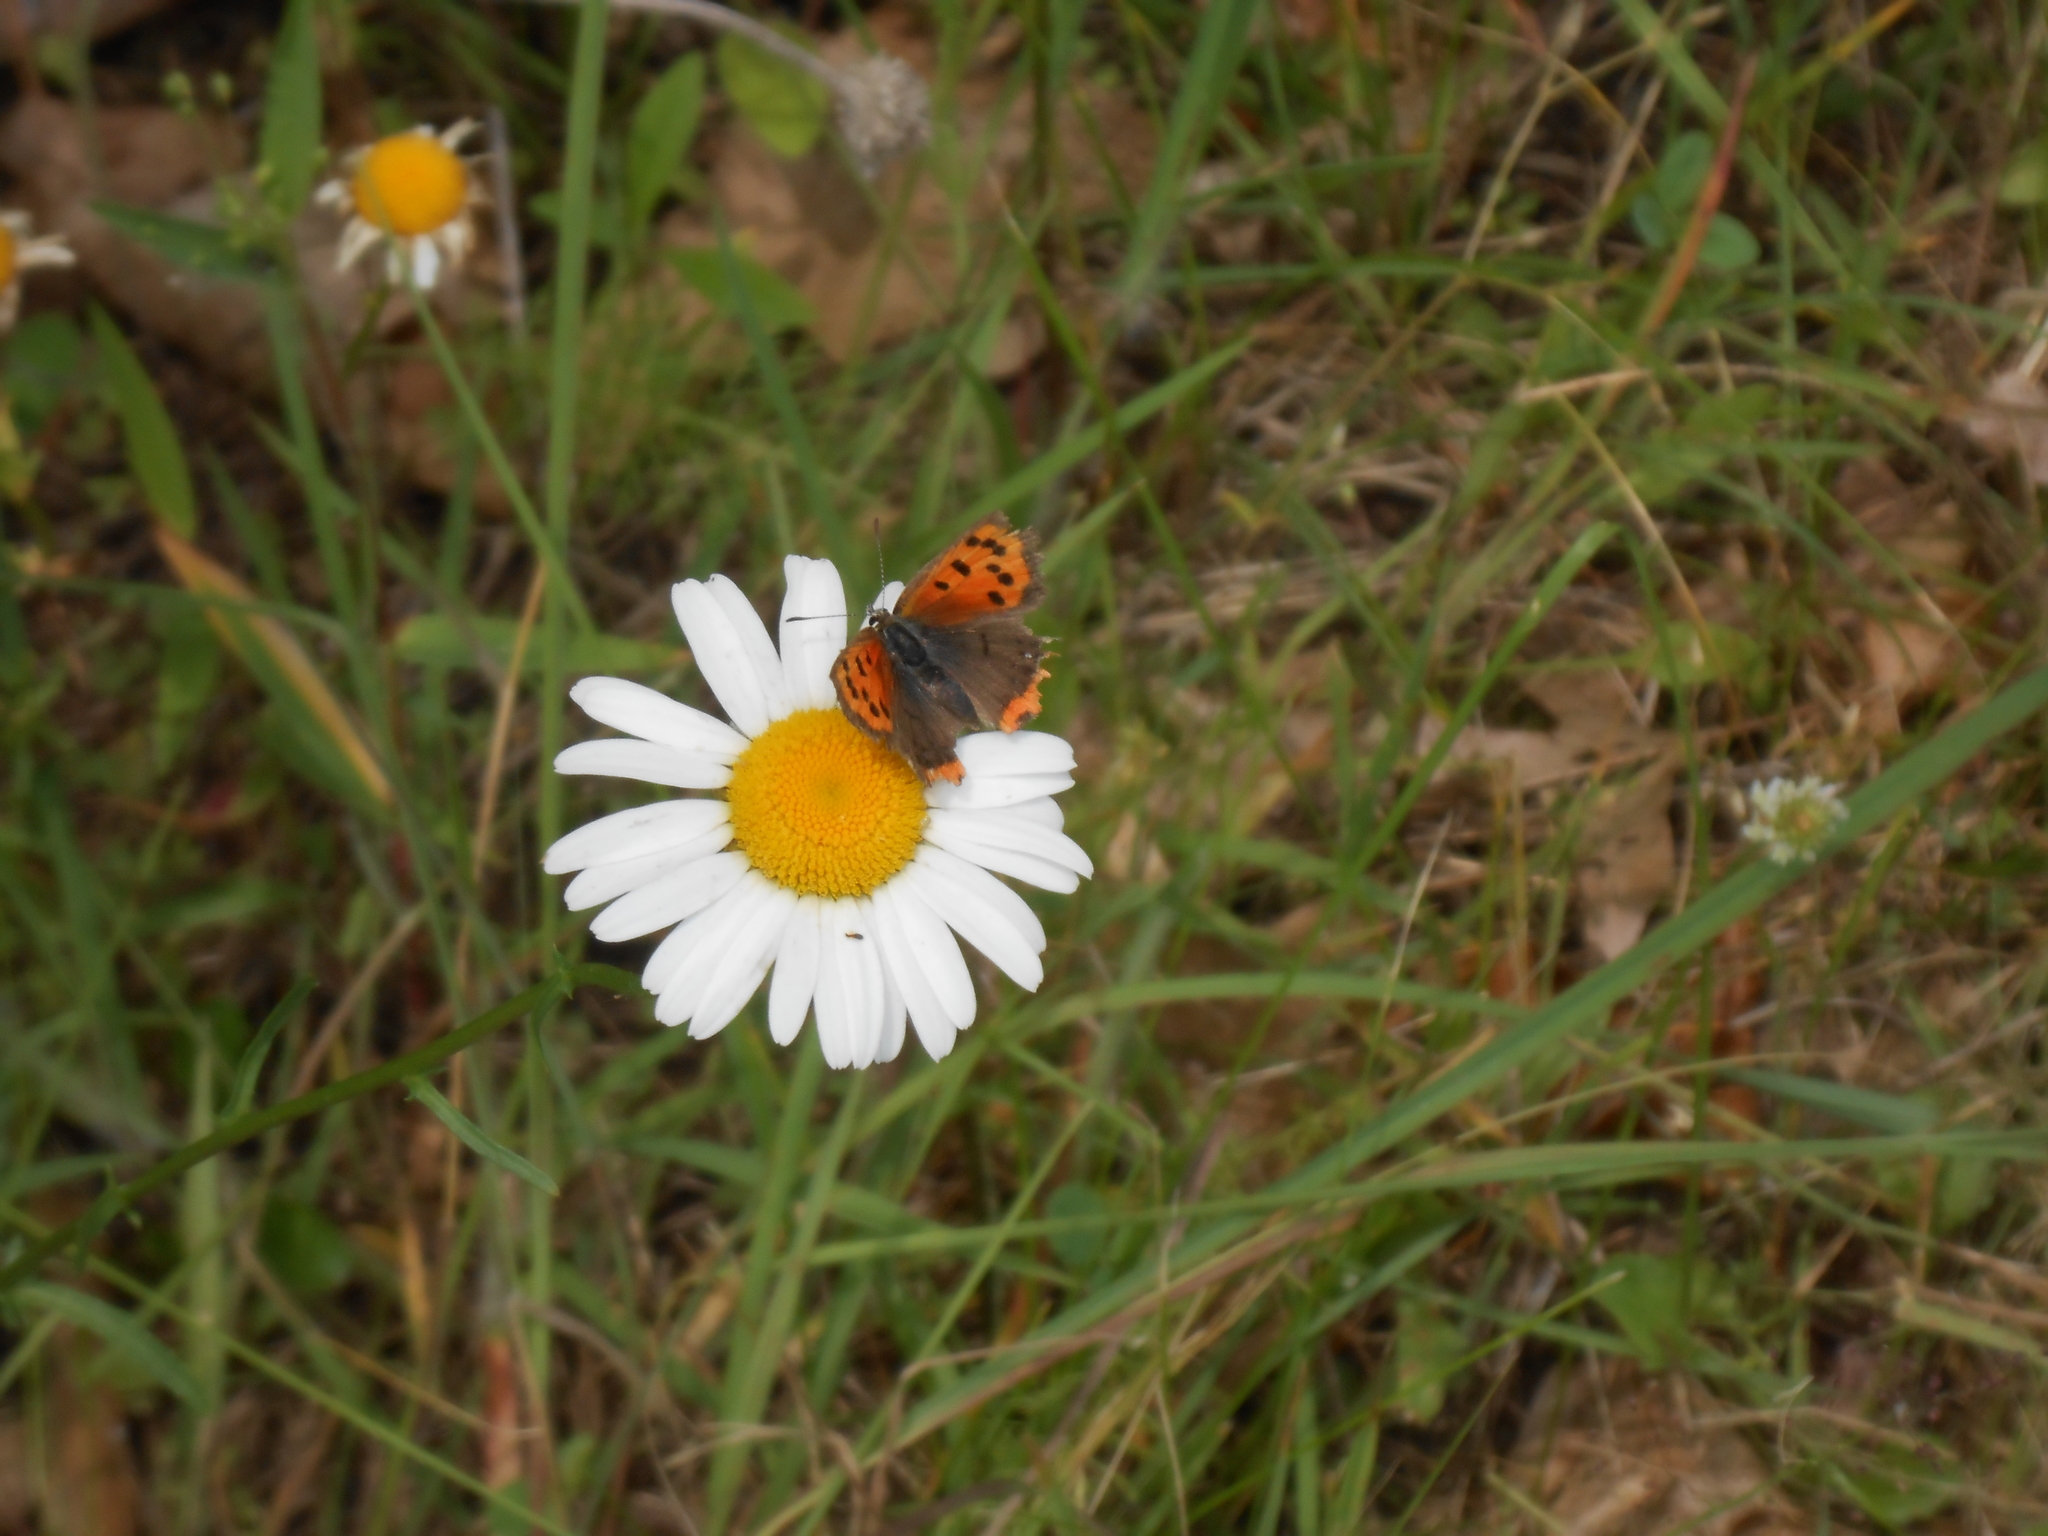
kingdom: Animalia
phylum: Arthropoda
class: Insecta
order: Lepidoptera
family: Lycaenidae
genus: Lycaena
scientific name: Lycaena hypophlaeas
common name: American copper
